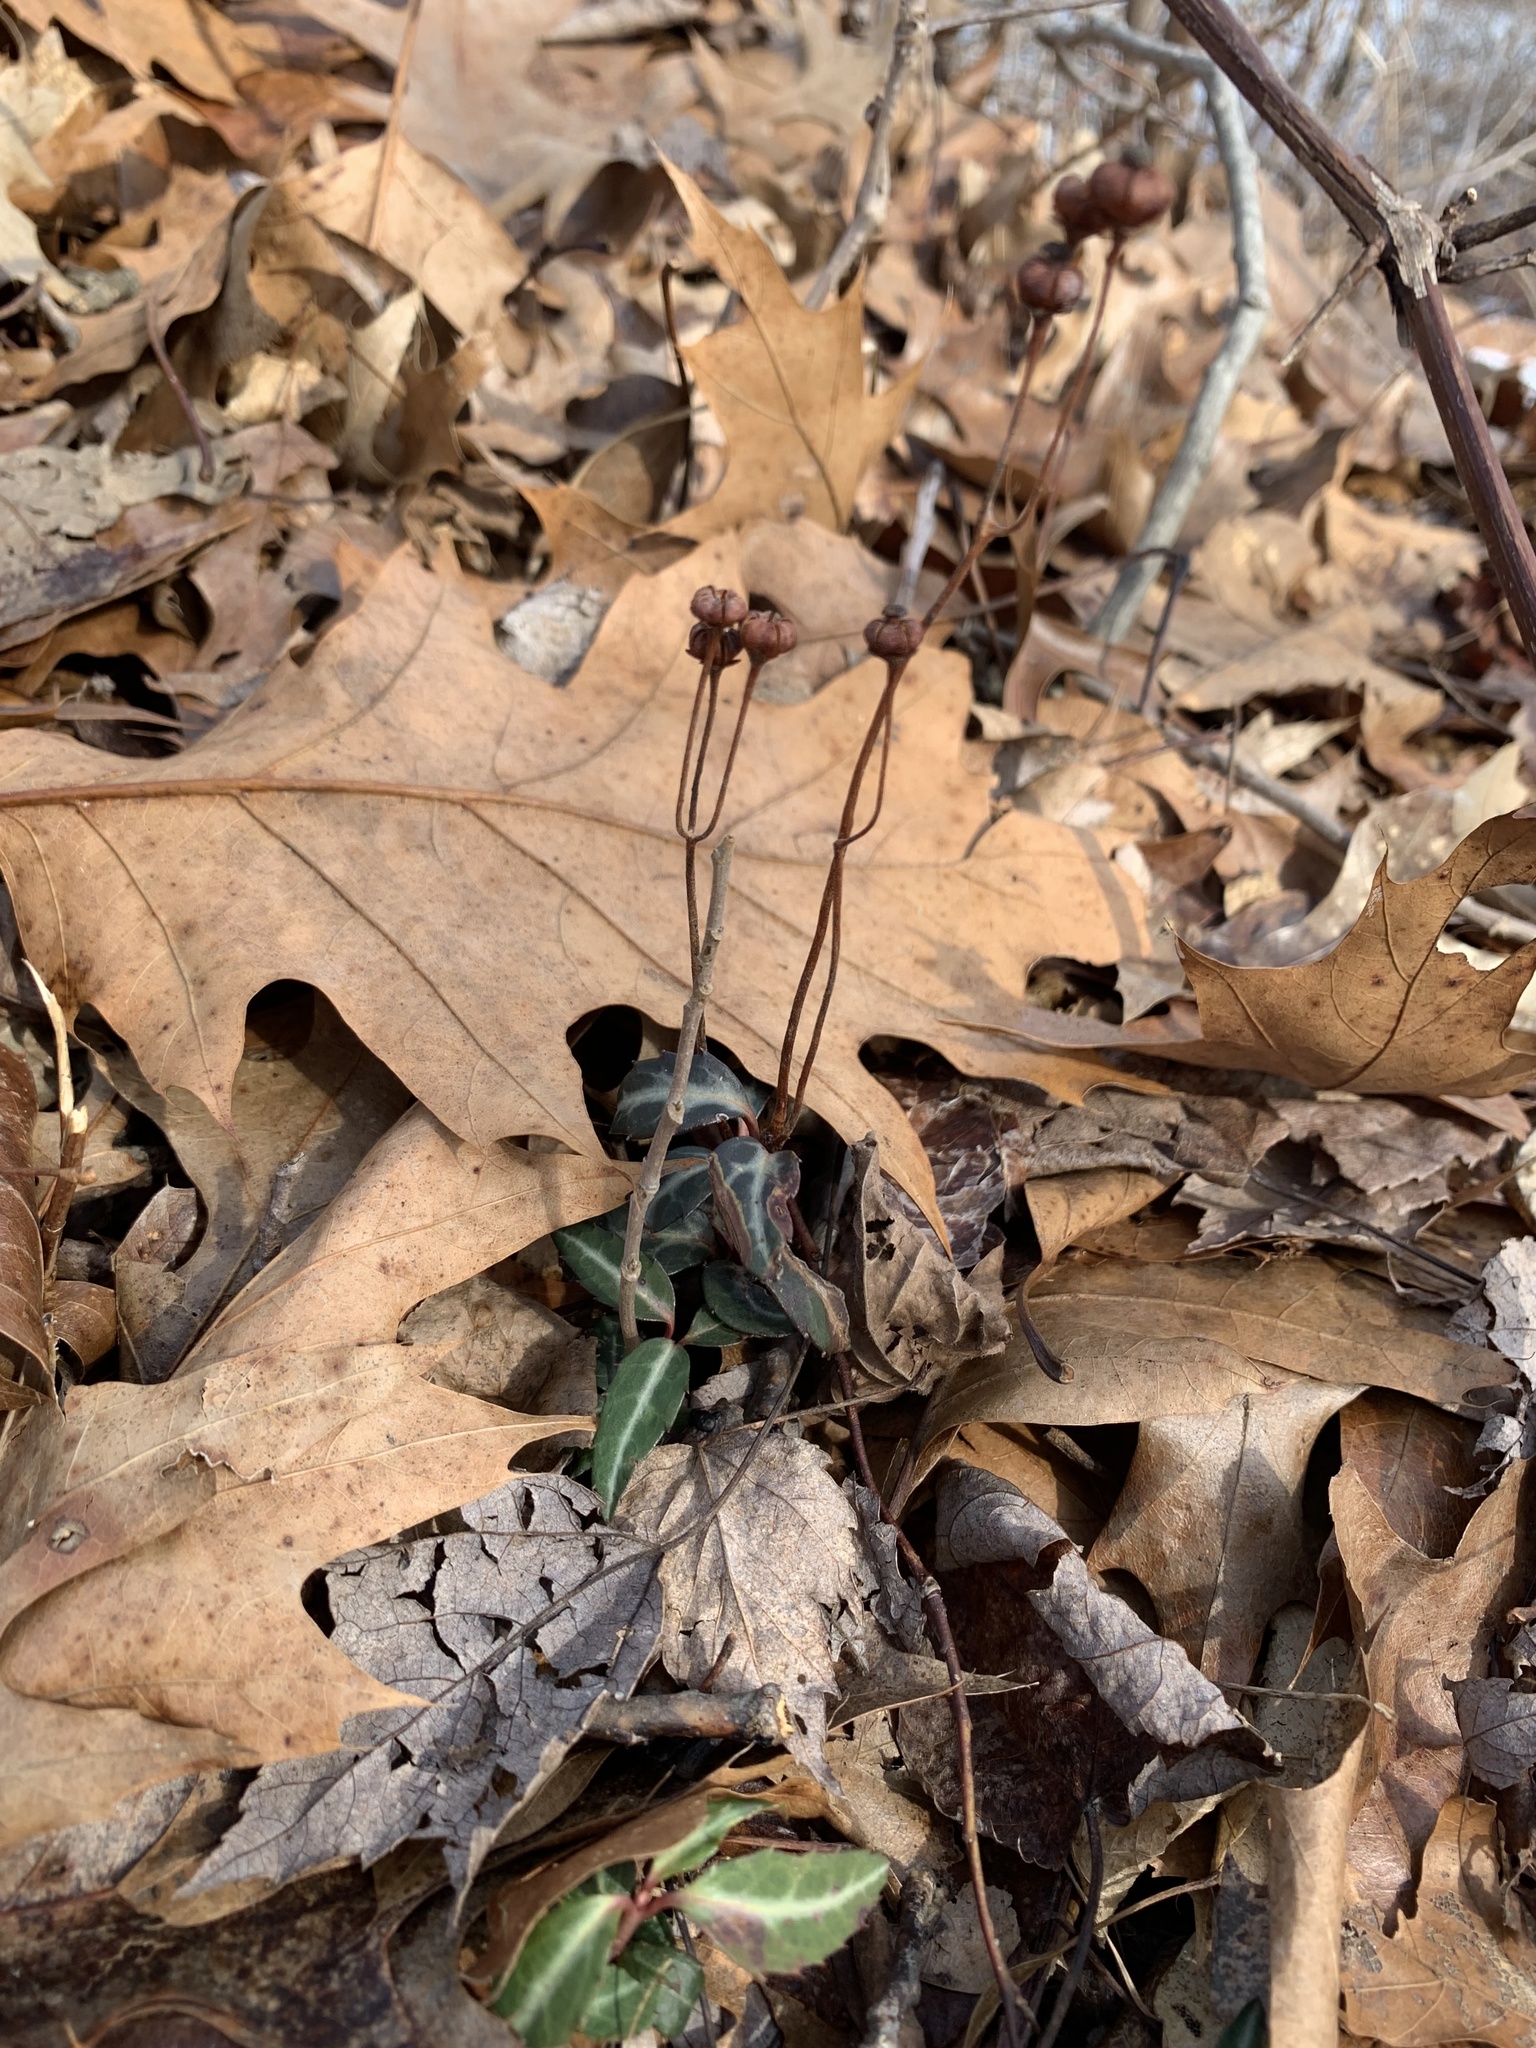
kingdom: Plantae
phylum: Tracheophyta
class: Magnoliopsida
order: Ericales
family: Ericaceae
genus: Chimaphila
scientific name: Chimaphila maculata
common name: Spotted pipsissewa
